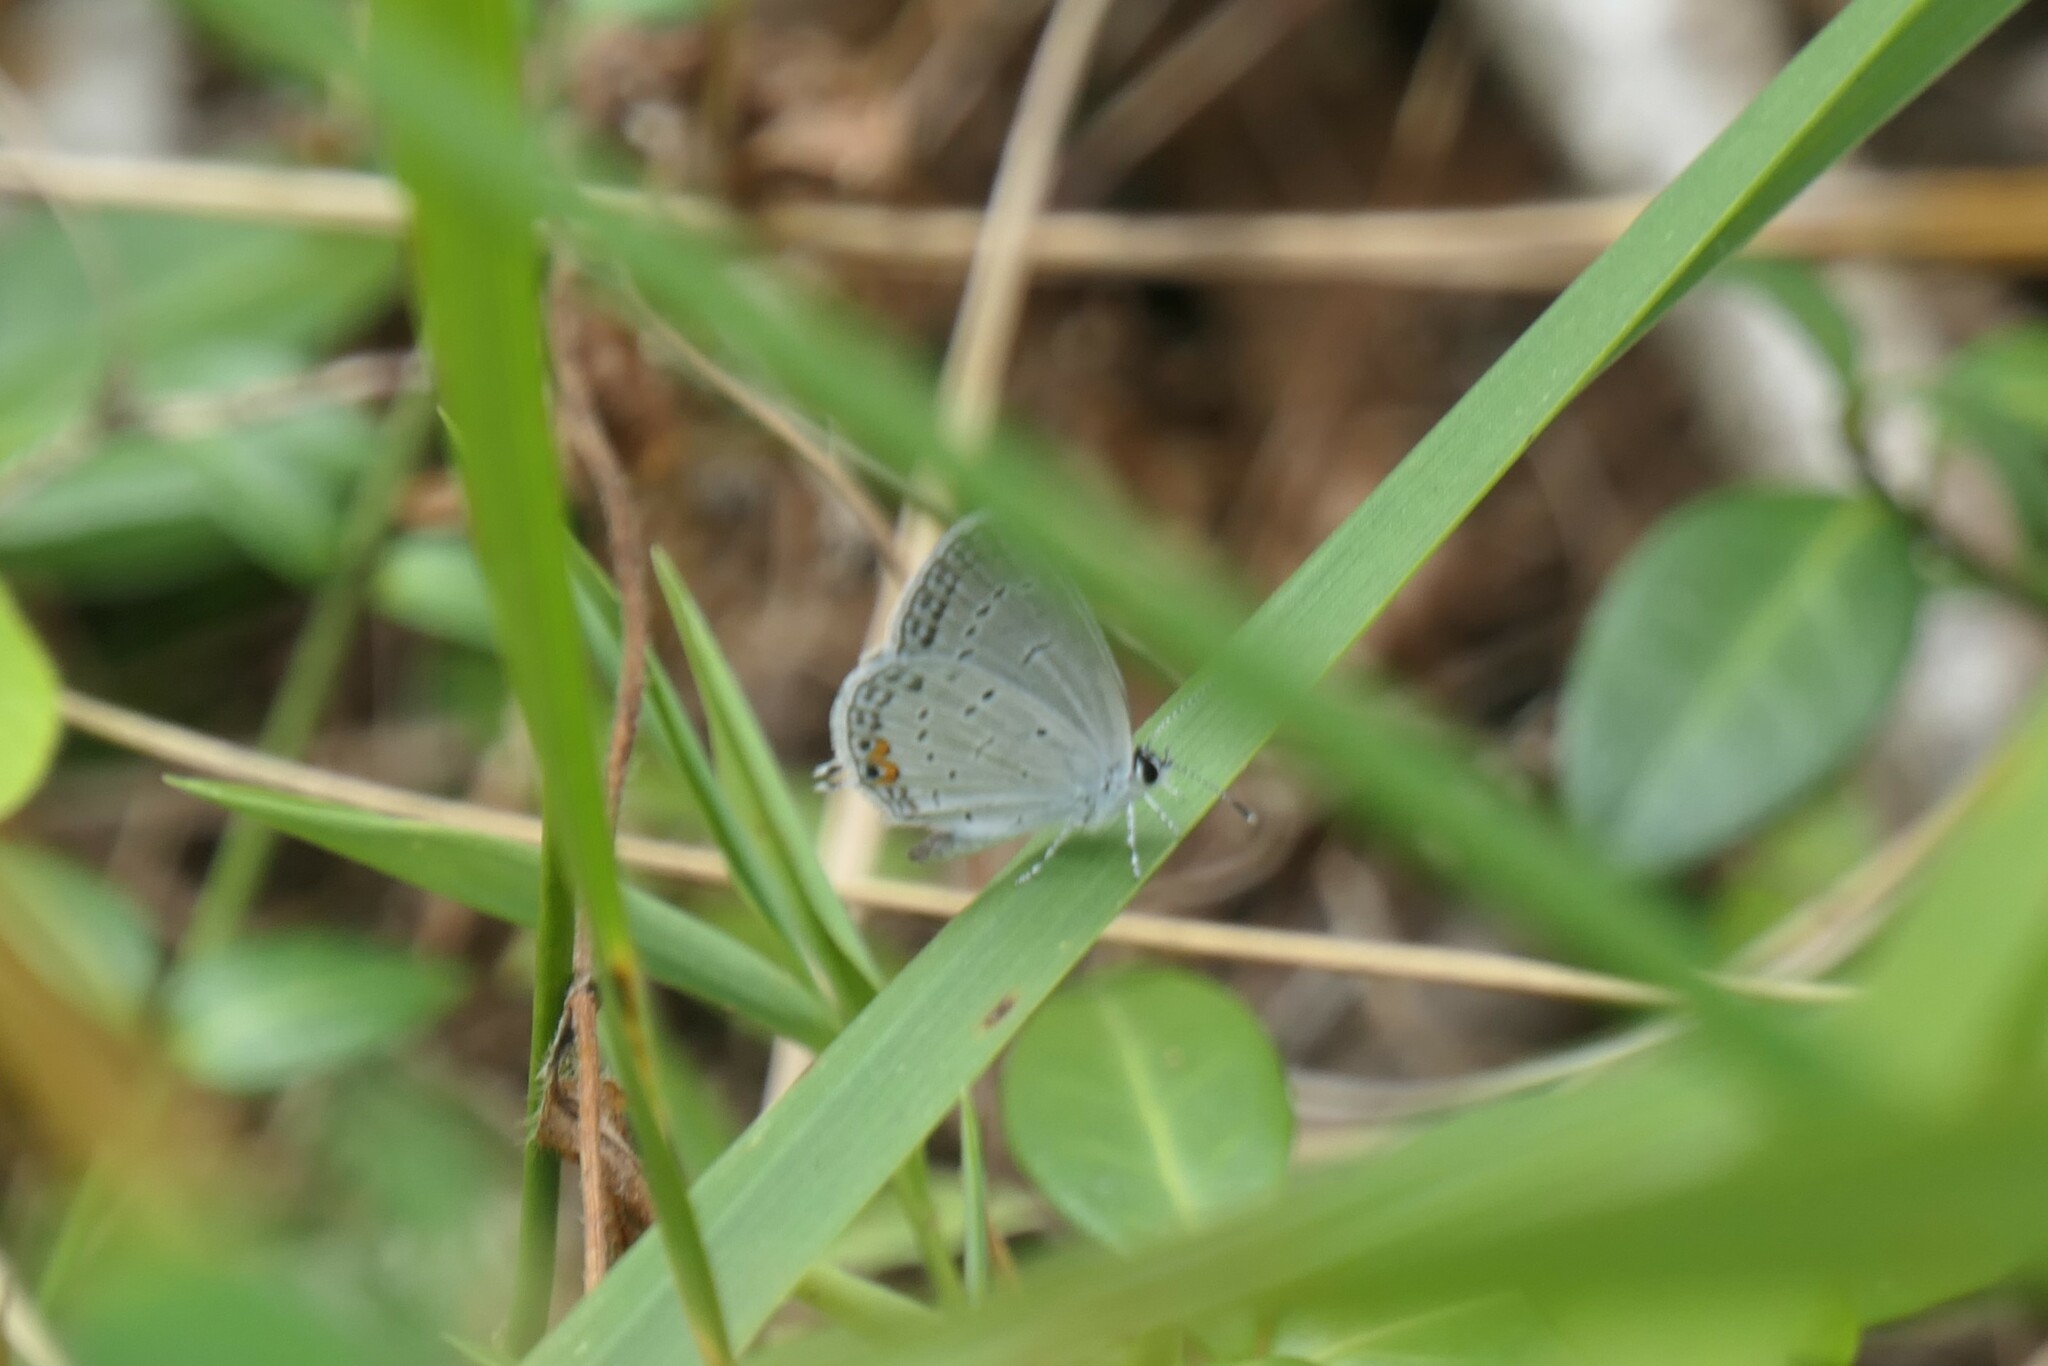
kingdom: Animalia
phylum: Arthropoda
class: Insecta
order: Lepidoptera
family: Lycaenidae
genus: Elkalyce
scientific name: Elkalyce comyntas
